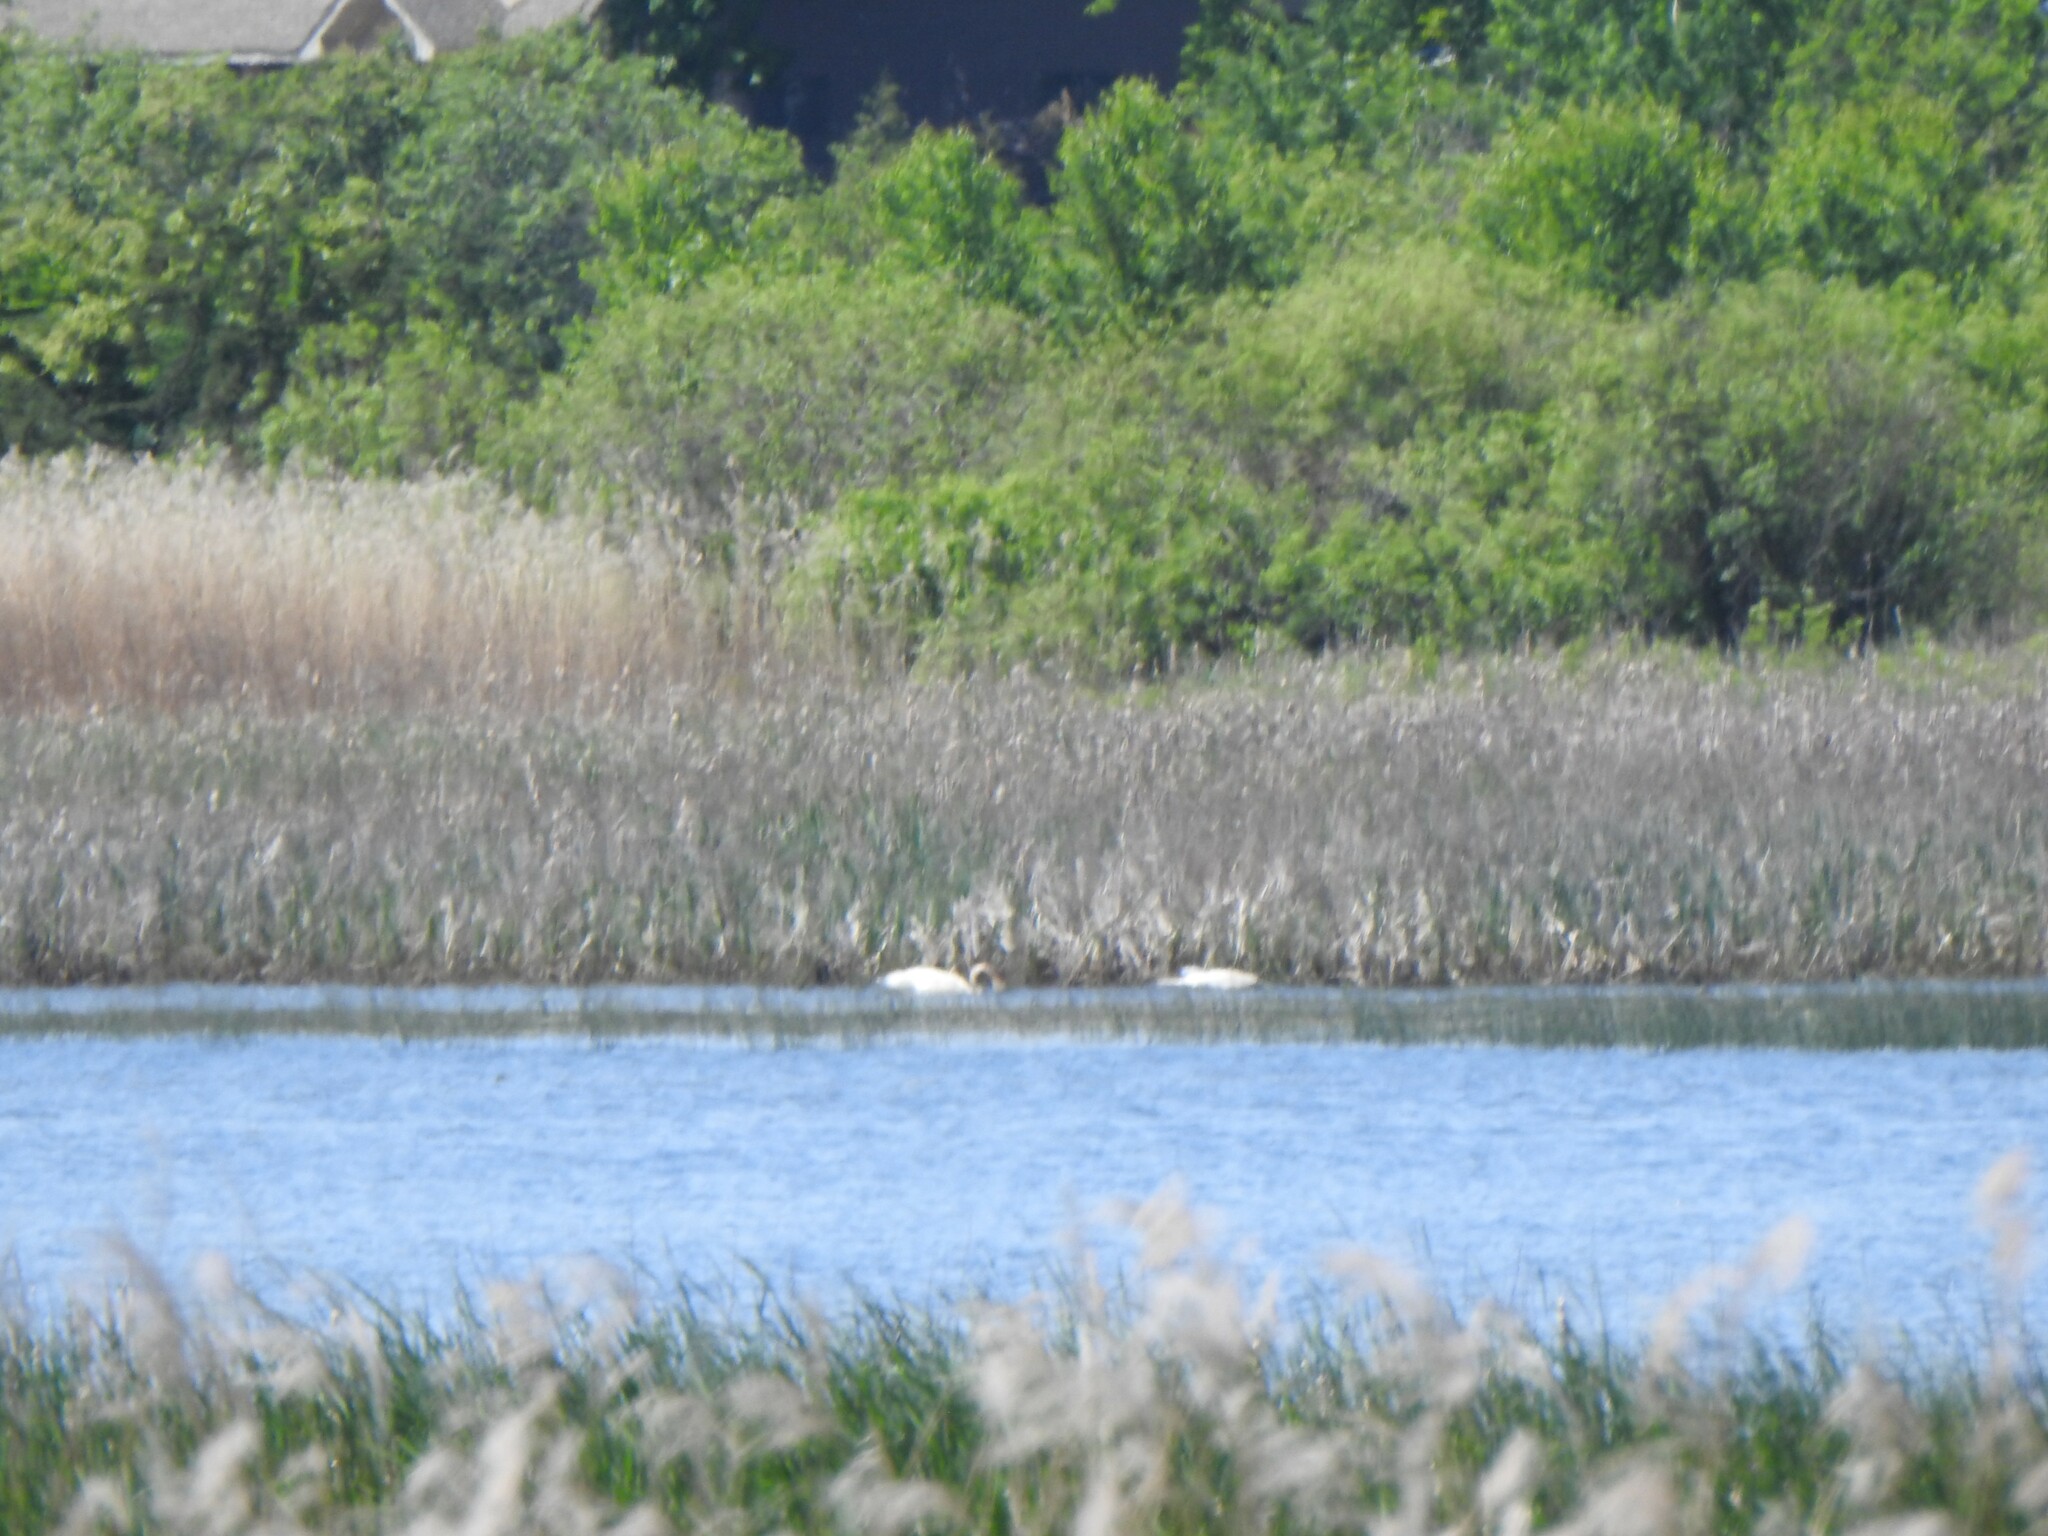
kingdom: Animalia
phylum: Chordata
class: Aves
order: Anseriformes
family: Anatidae
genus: Cygnus
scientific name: Cygnus buccinator
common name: Trumpeter swan
